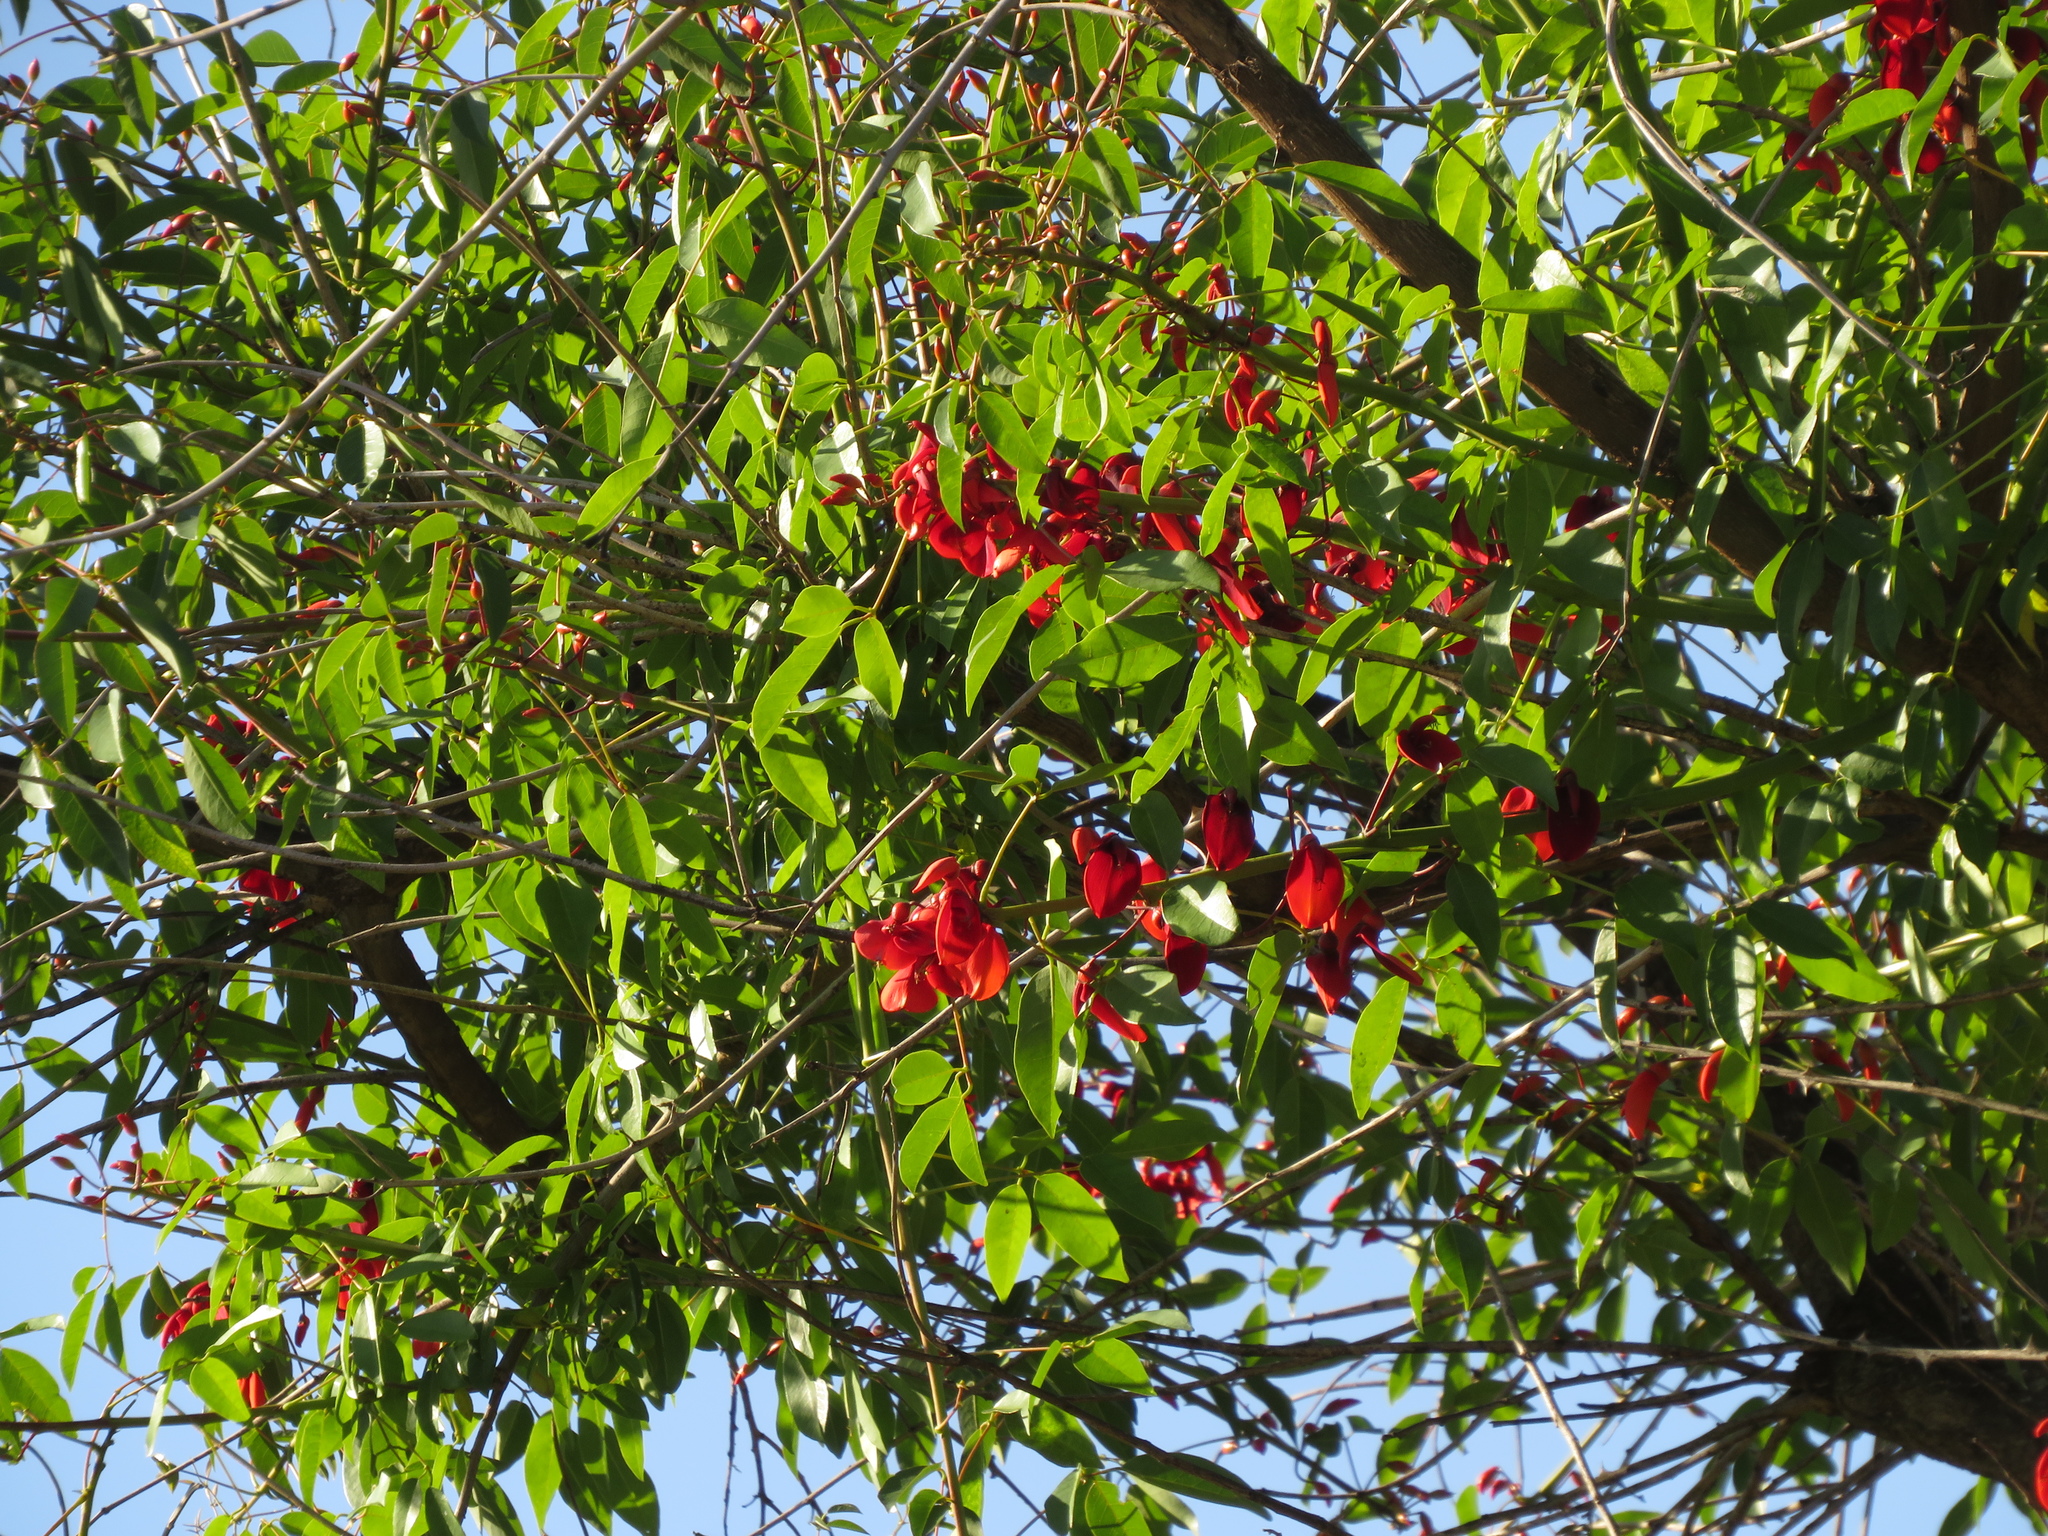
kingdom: Plantae
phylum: Tracheophyta
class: Magnoliopsida
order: Fabales
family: Fabaceae
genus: Erythrina
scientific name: Erythrina crista-galli
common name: Cockspur coral tree
